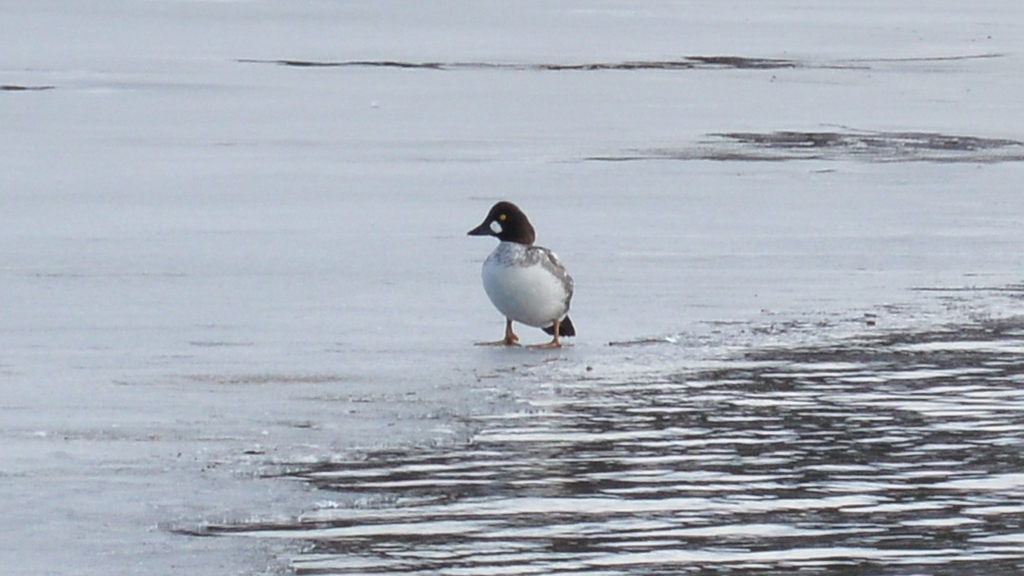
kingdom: Animalia
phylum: Chordata
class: Aves
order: Anseriformes
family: Anatidae
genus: Bucephala
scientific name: Bucephala clangula
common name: Common goldeneye
